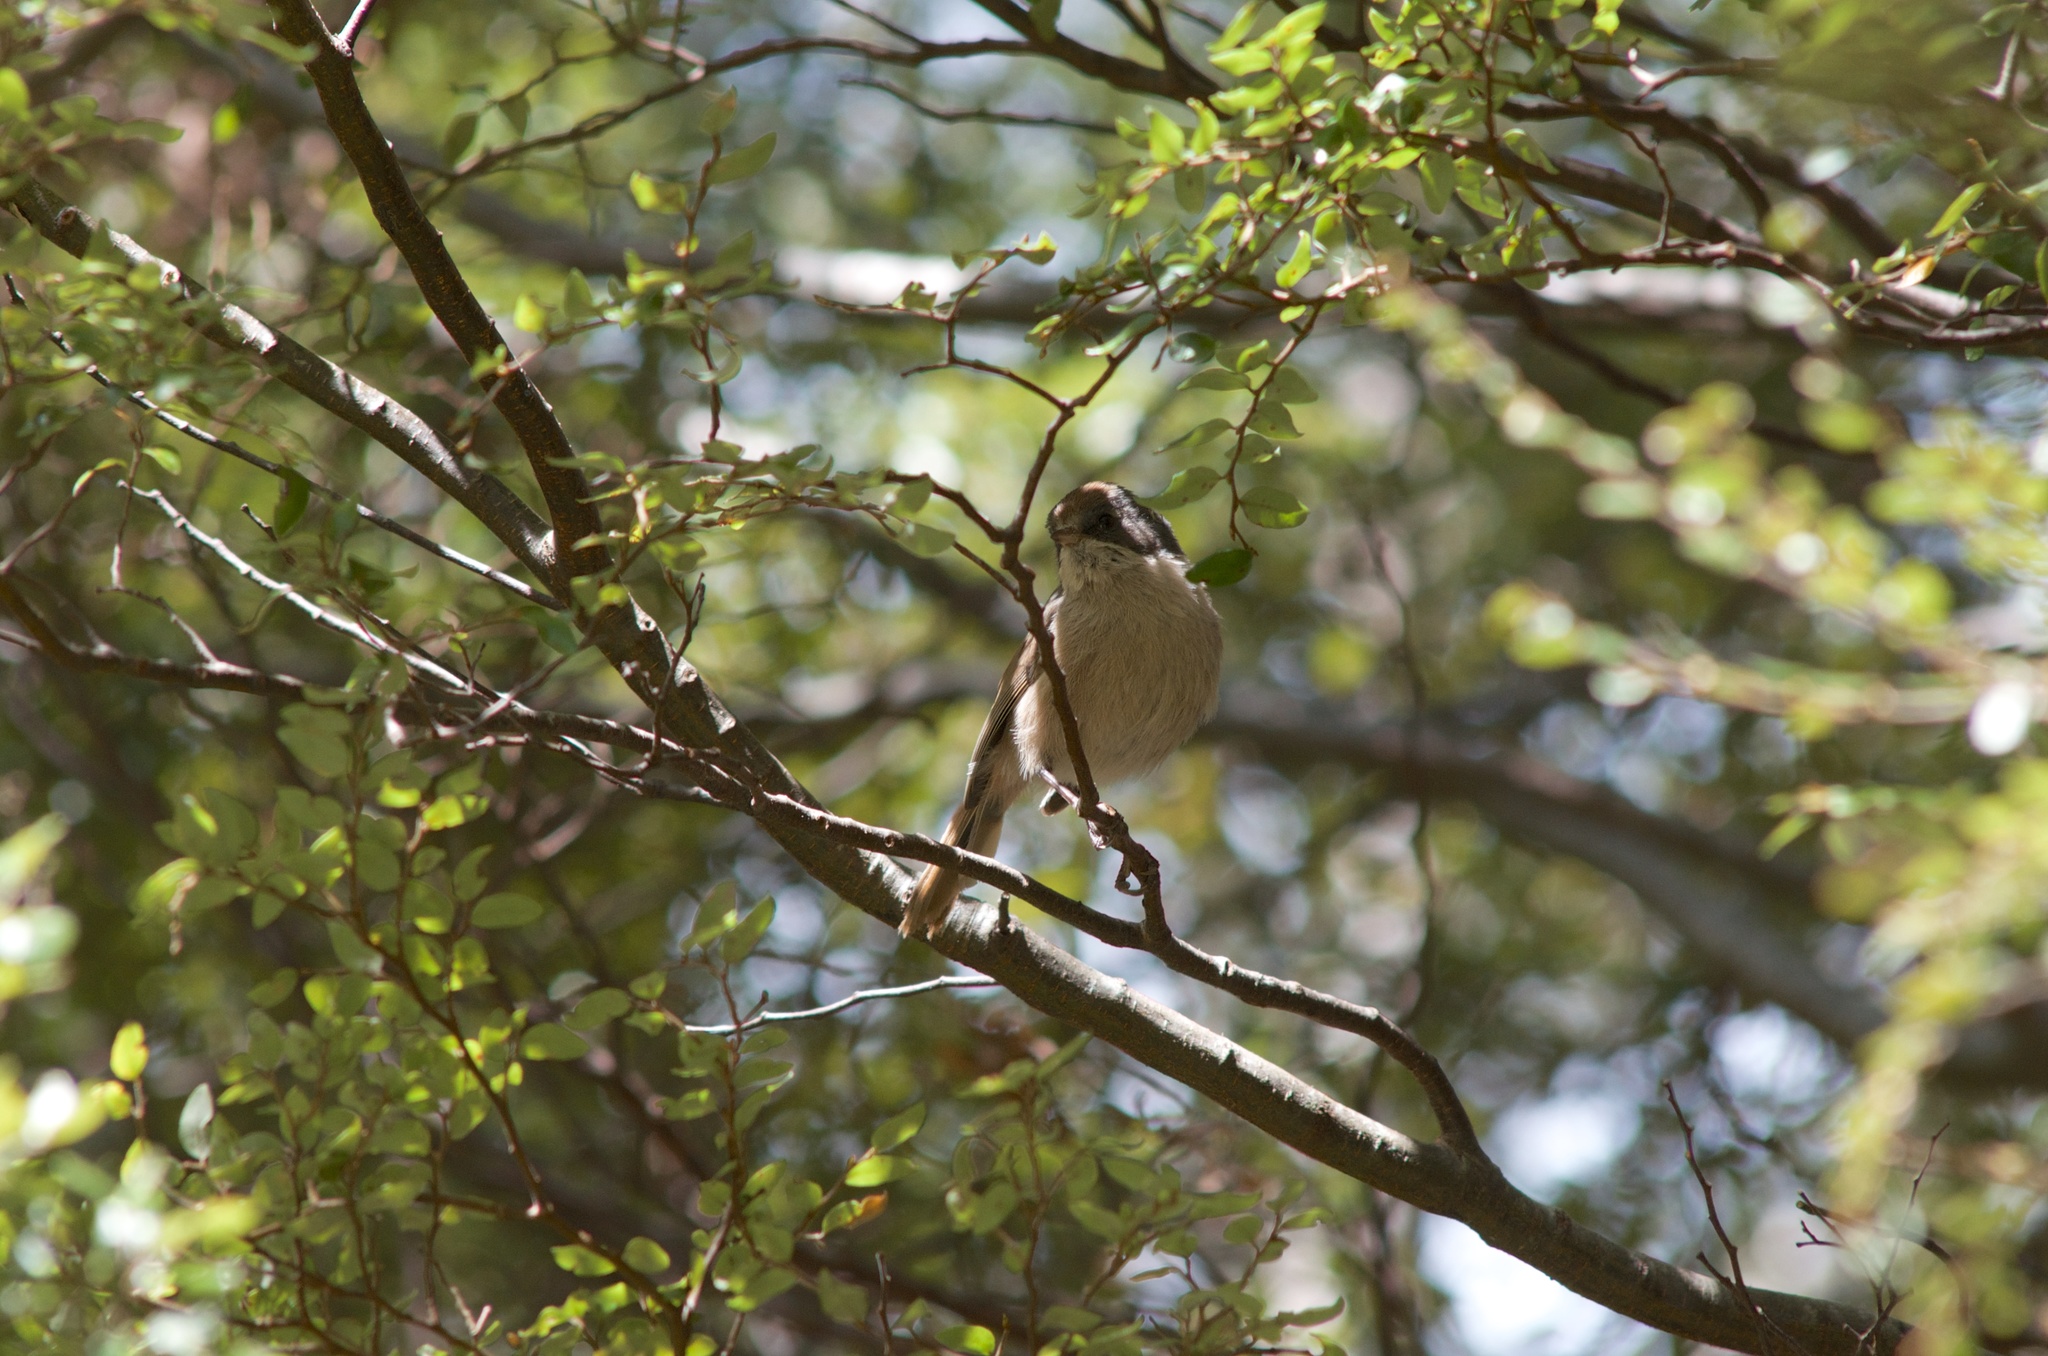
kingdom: Animalia
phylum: Chordata
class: Aves
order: Passeriformes
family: Acanthizidae
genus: Finschia
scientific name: Finschia novaeseelandiae
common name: Pipipi
